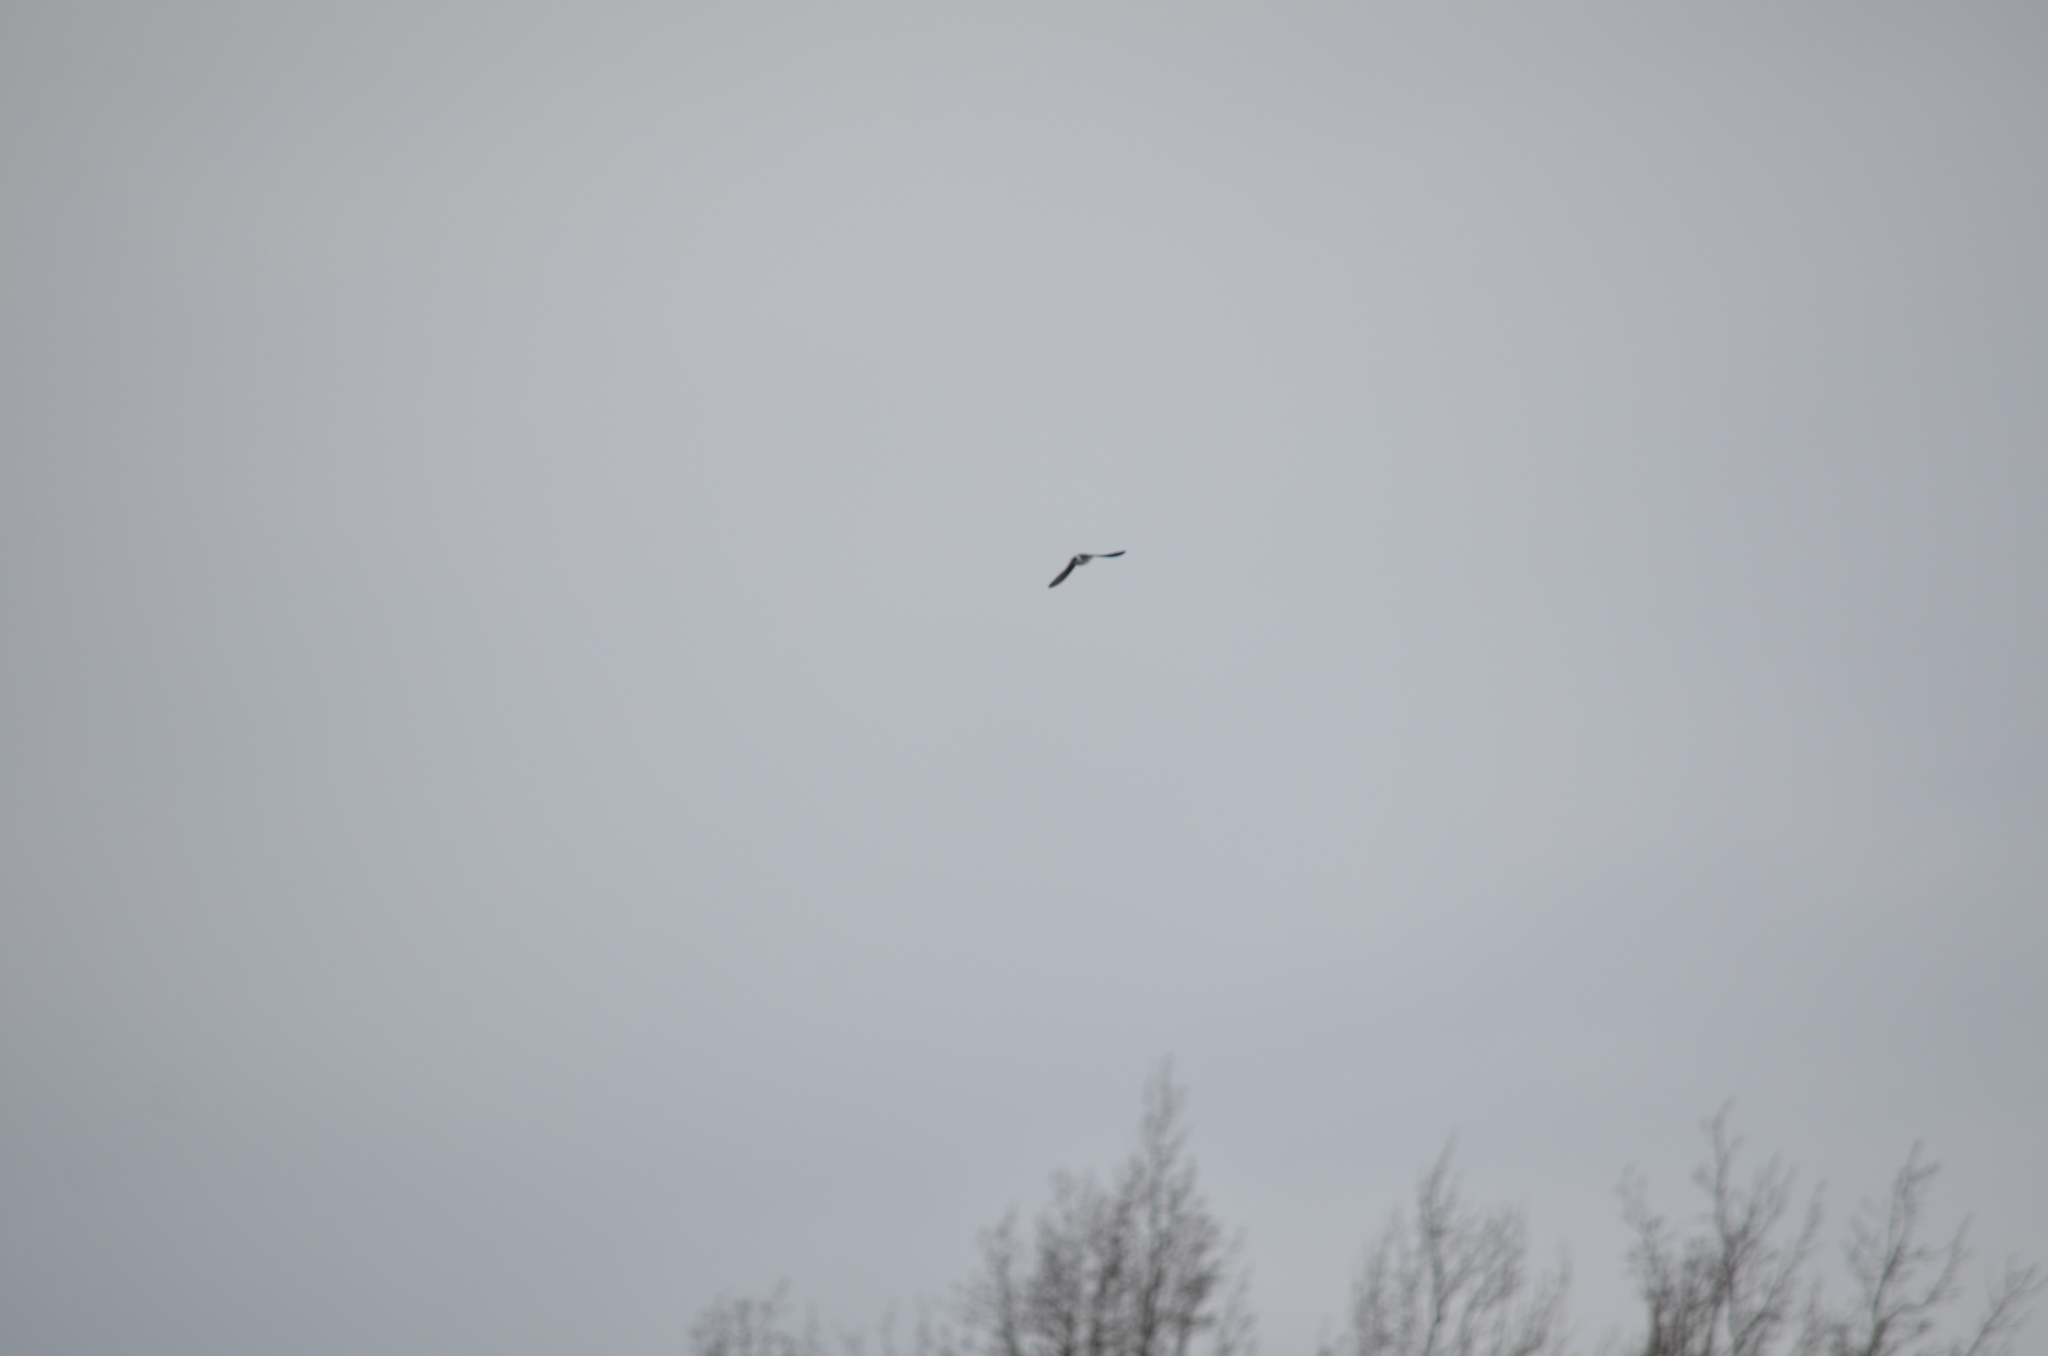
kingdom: Animalia
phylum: Chordata
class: Aves
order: Accipitriformes
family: Accipitridae
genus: Haliaeetus
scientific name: Haliaeetus leucocephalus
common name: Bald eagle
